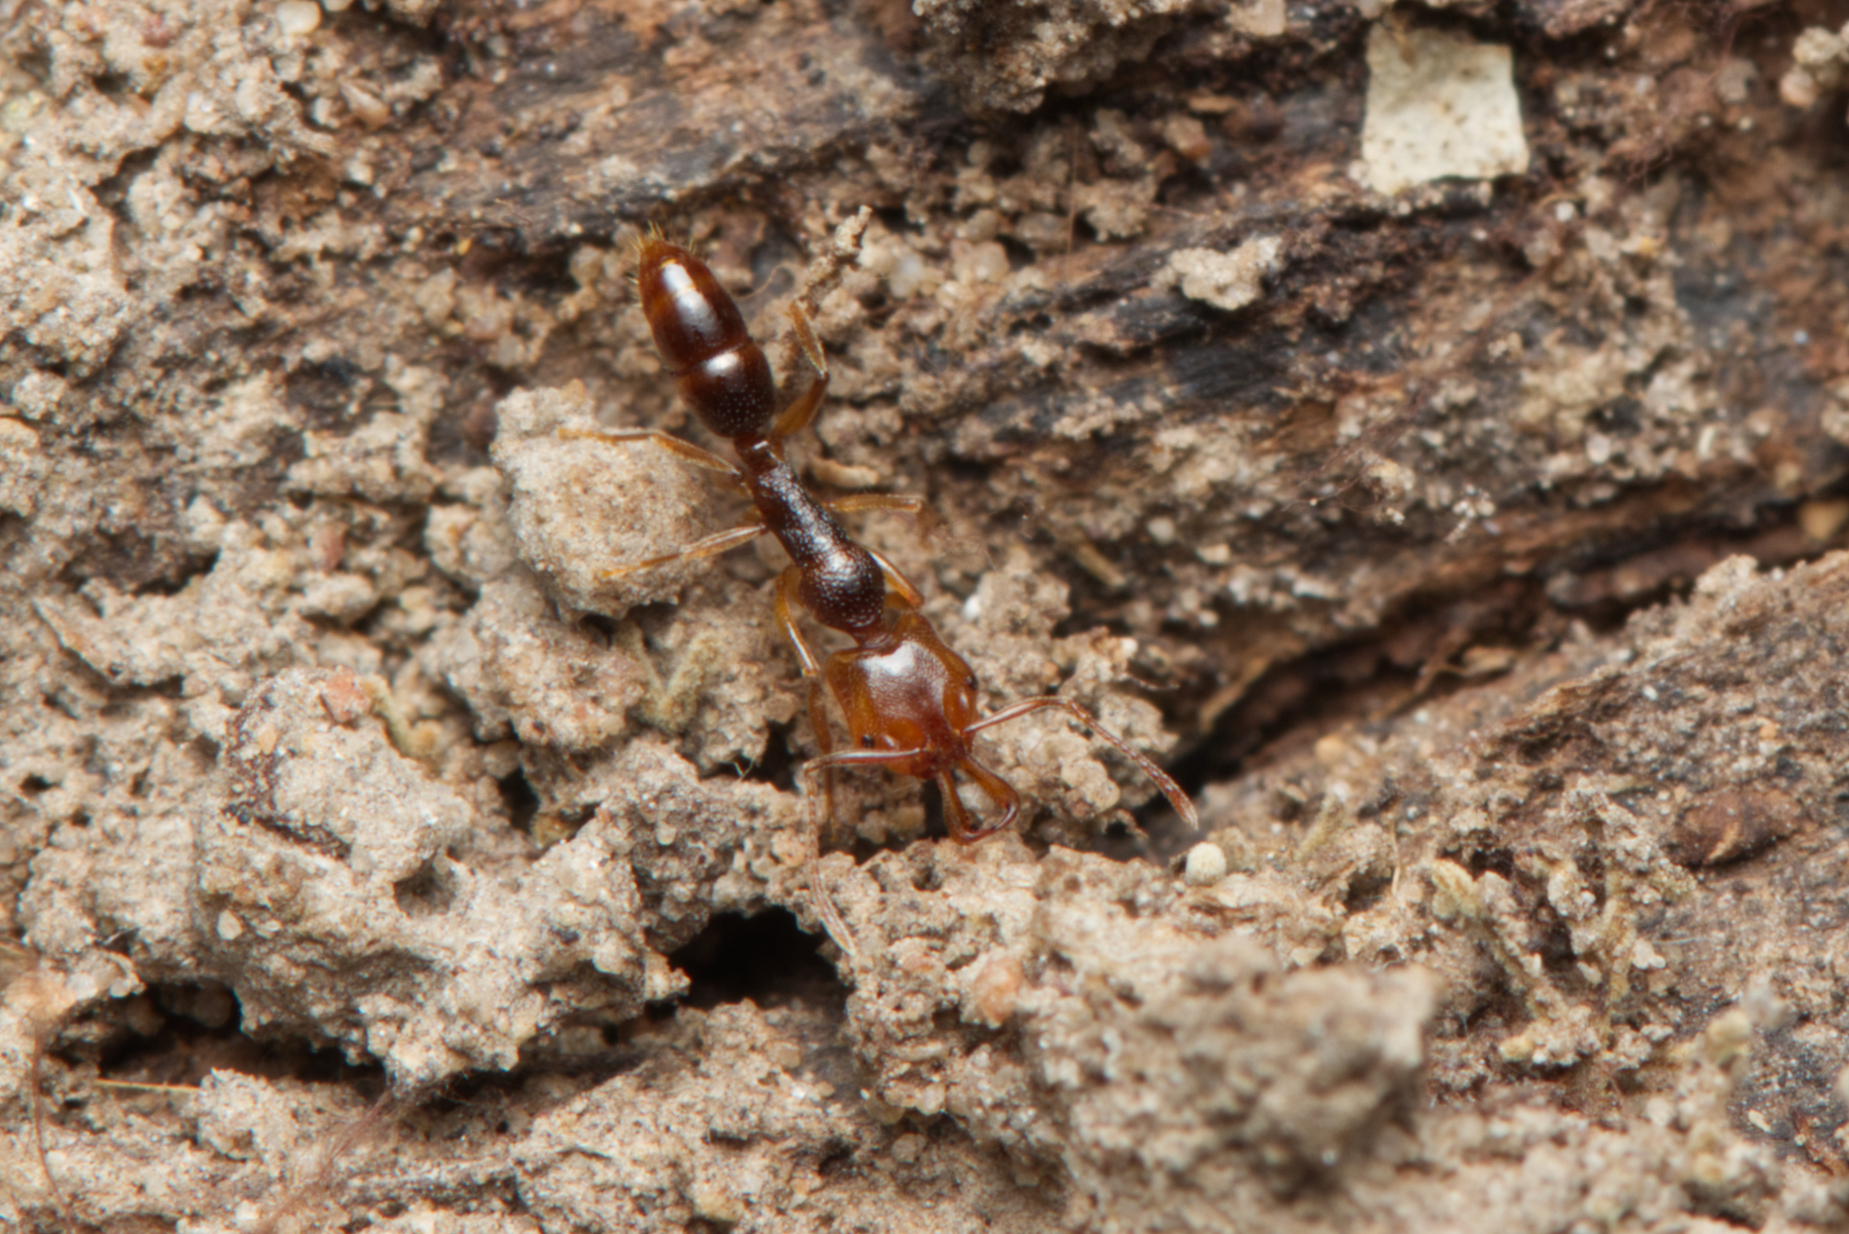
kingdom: Animalia
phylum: Arthropoda
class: Insecta
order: Hymenoptera
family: Formicidae
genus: Anochetus
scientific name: Anochetus graeffei
